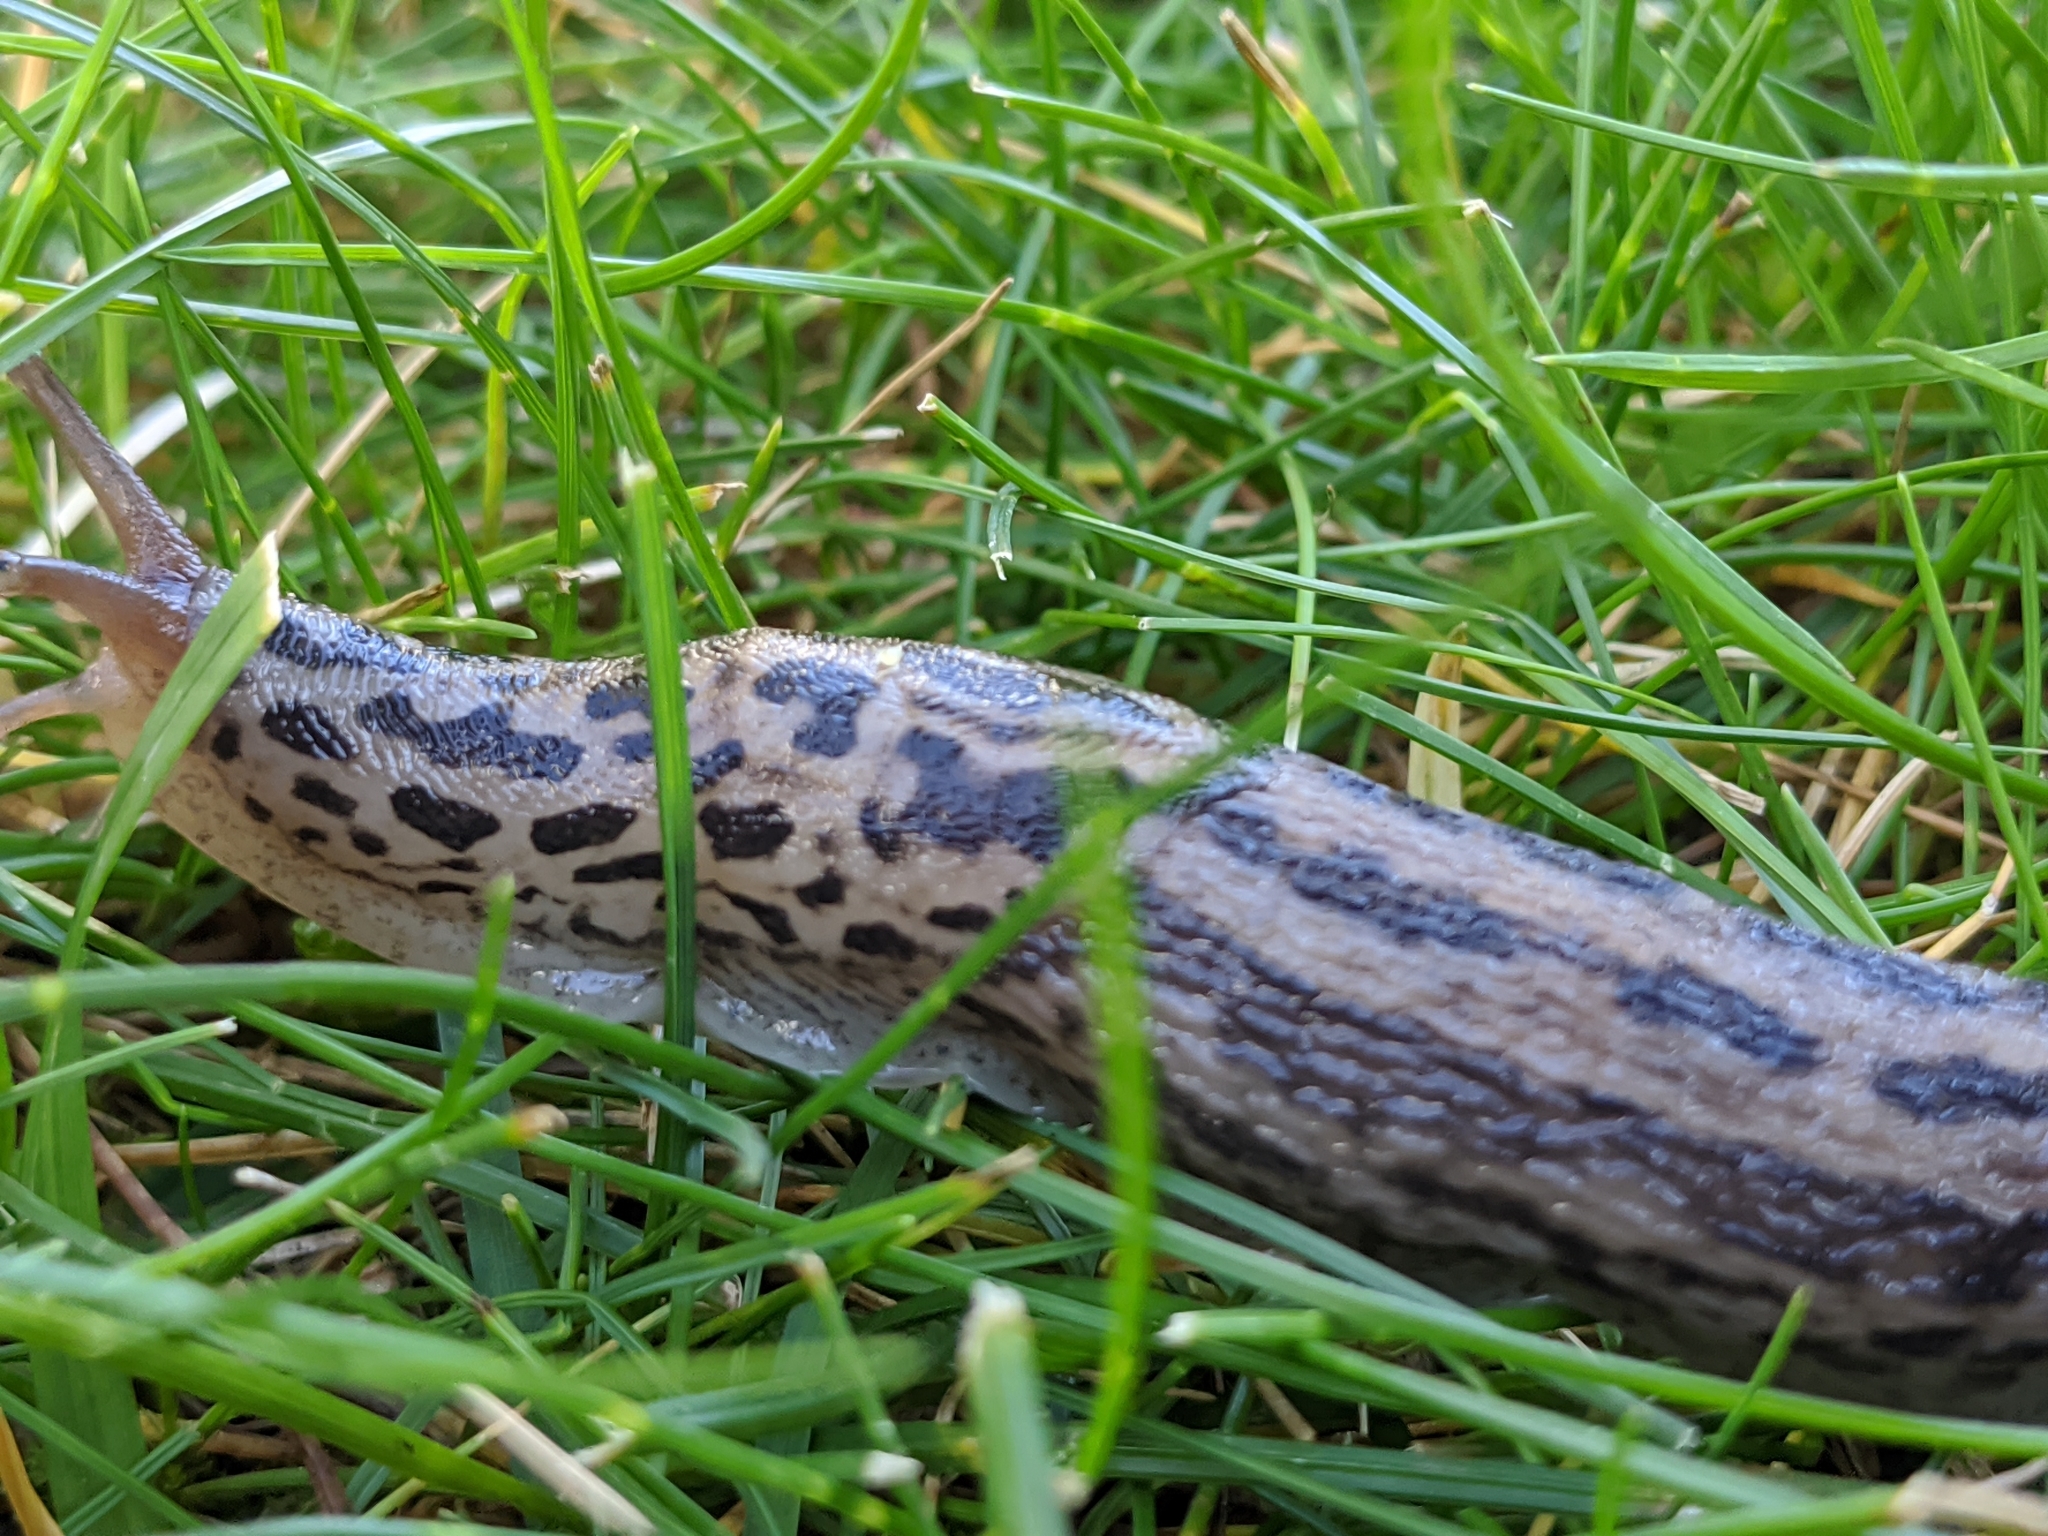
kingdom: Animalia
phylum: Mollusca
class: Gastropoda
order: Stylommatophora
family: Limacidae
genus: Limax
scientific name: Limax maximus
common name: Great grey slug
